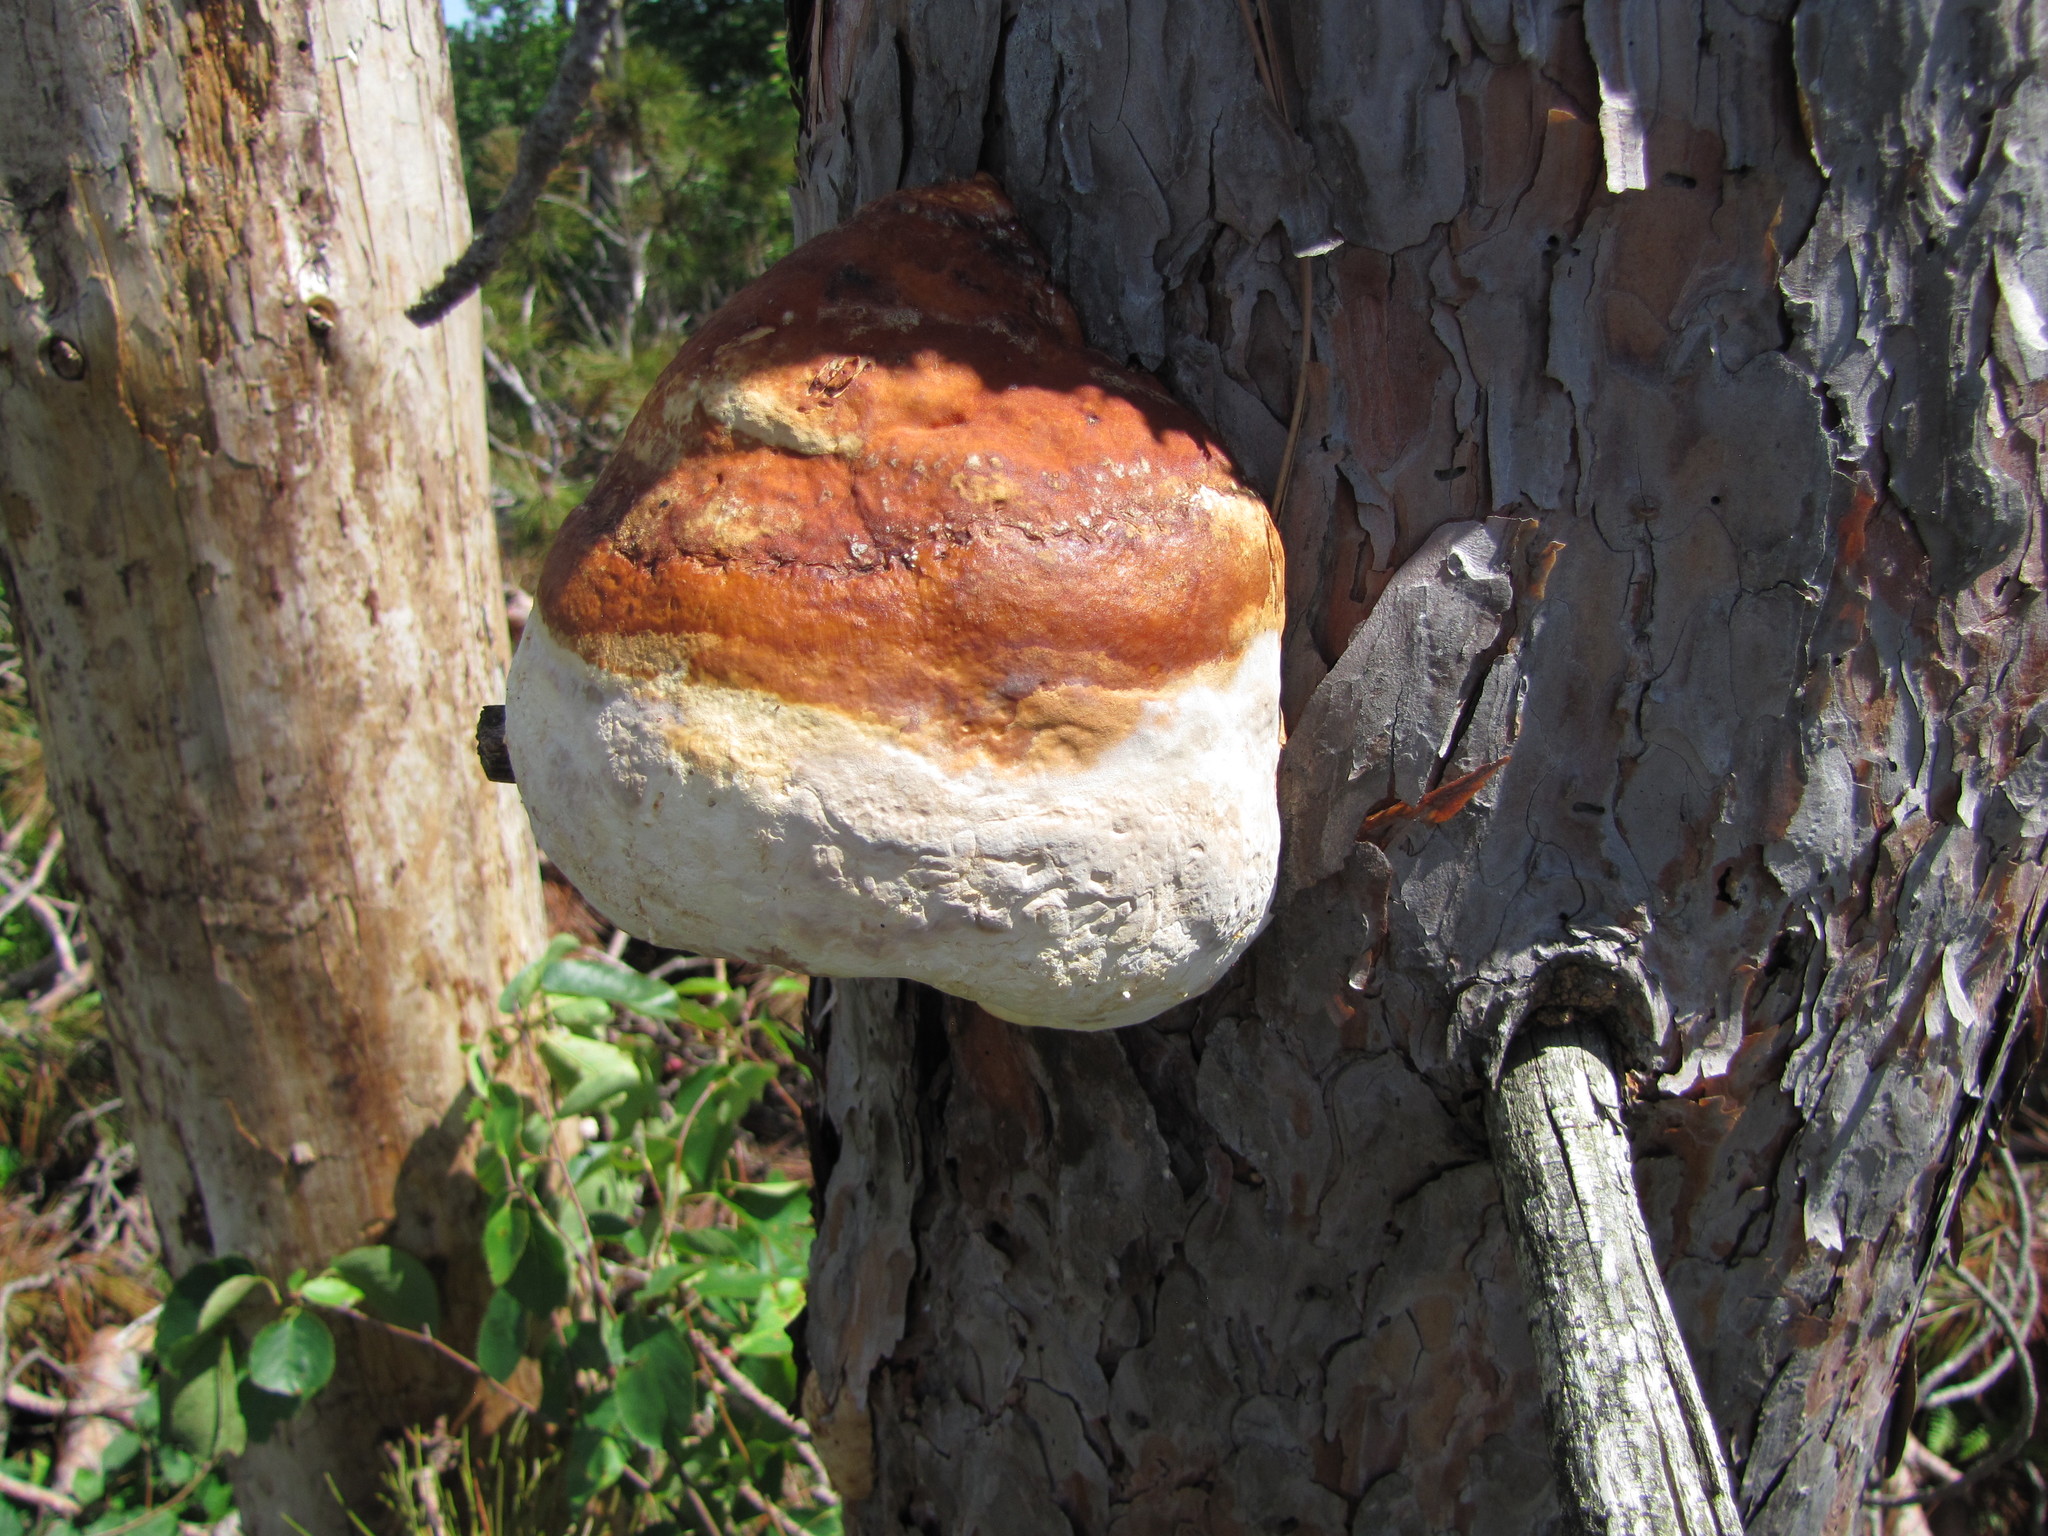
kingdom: Fungi
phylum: Basidiomycota
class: Agaricomycetes
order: Polyporales
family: Fomitopsidaceae
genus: Fomitopsis
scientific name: Fomitopsis mounceae
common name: Northern red belt
